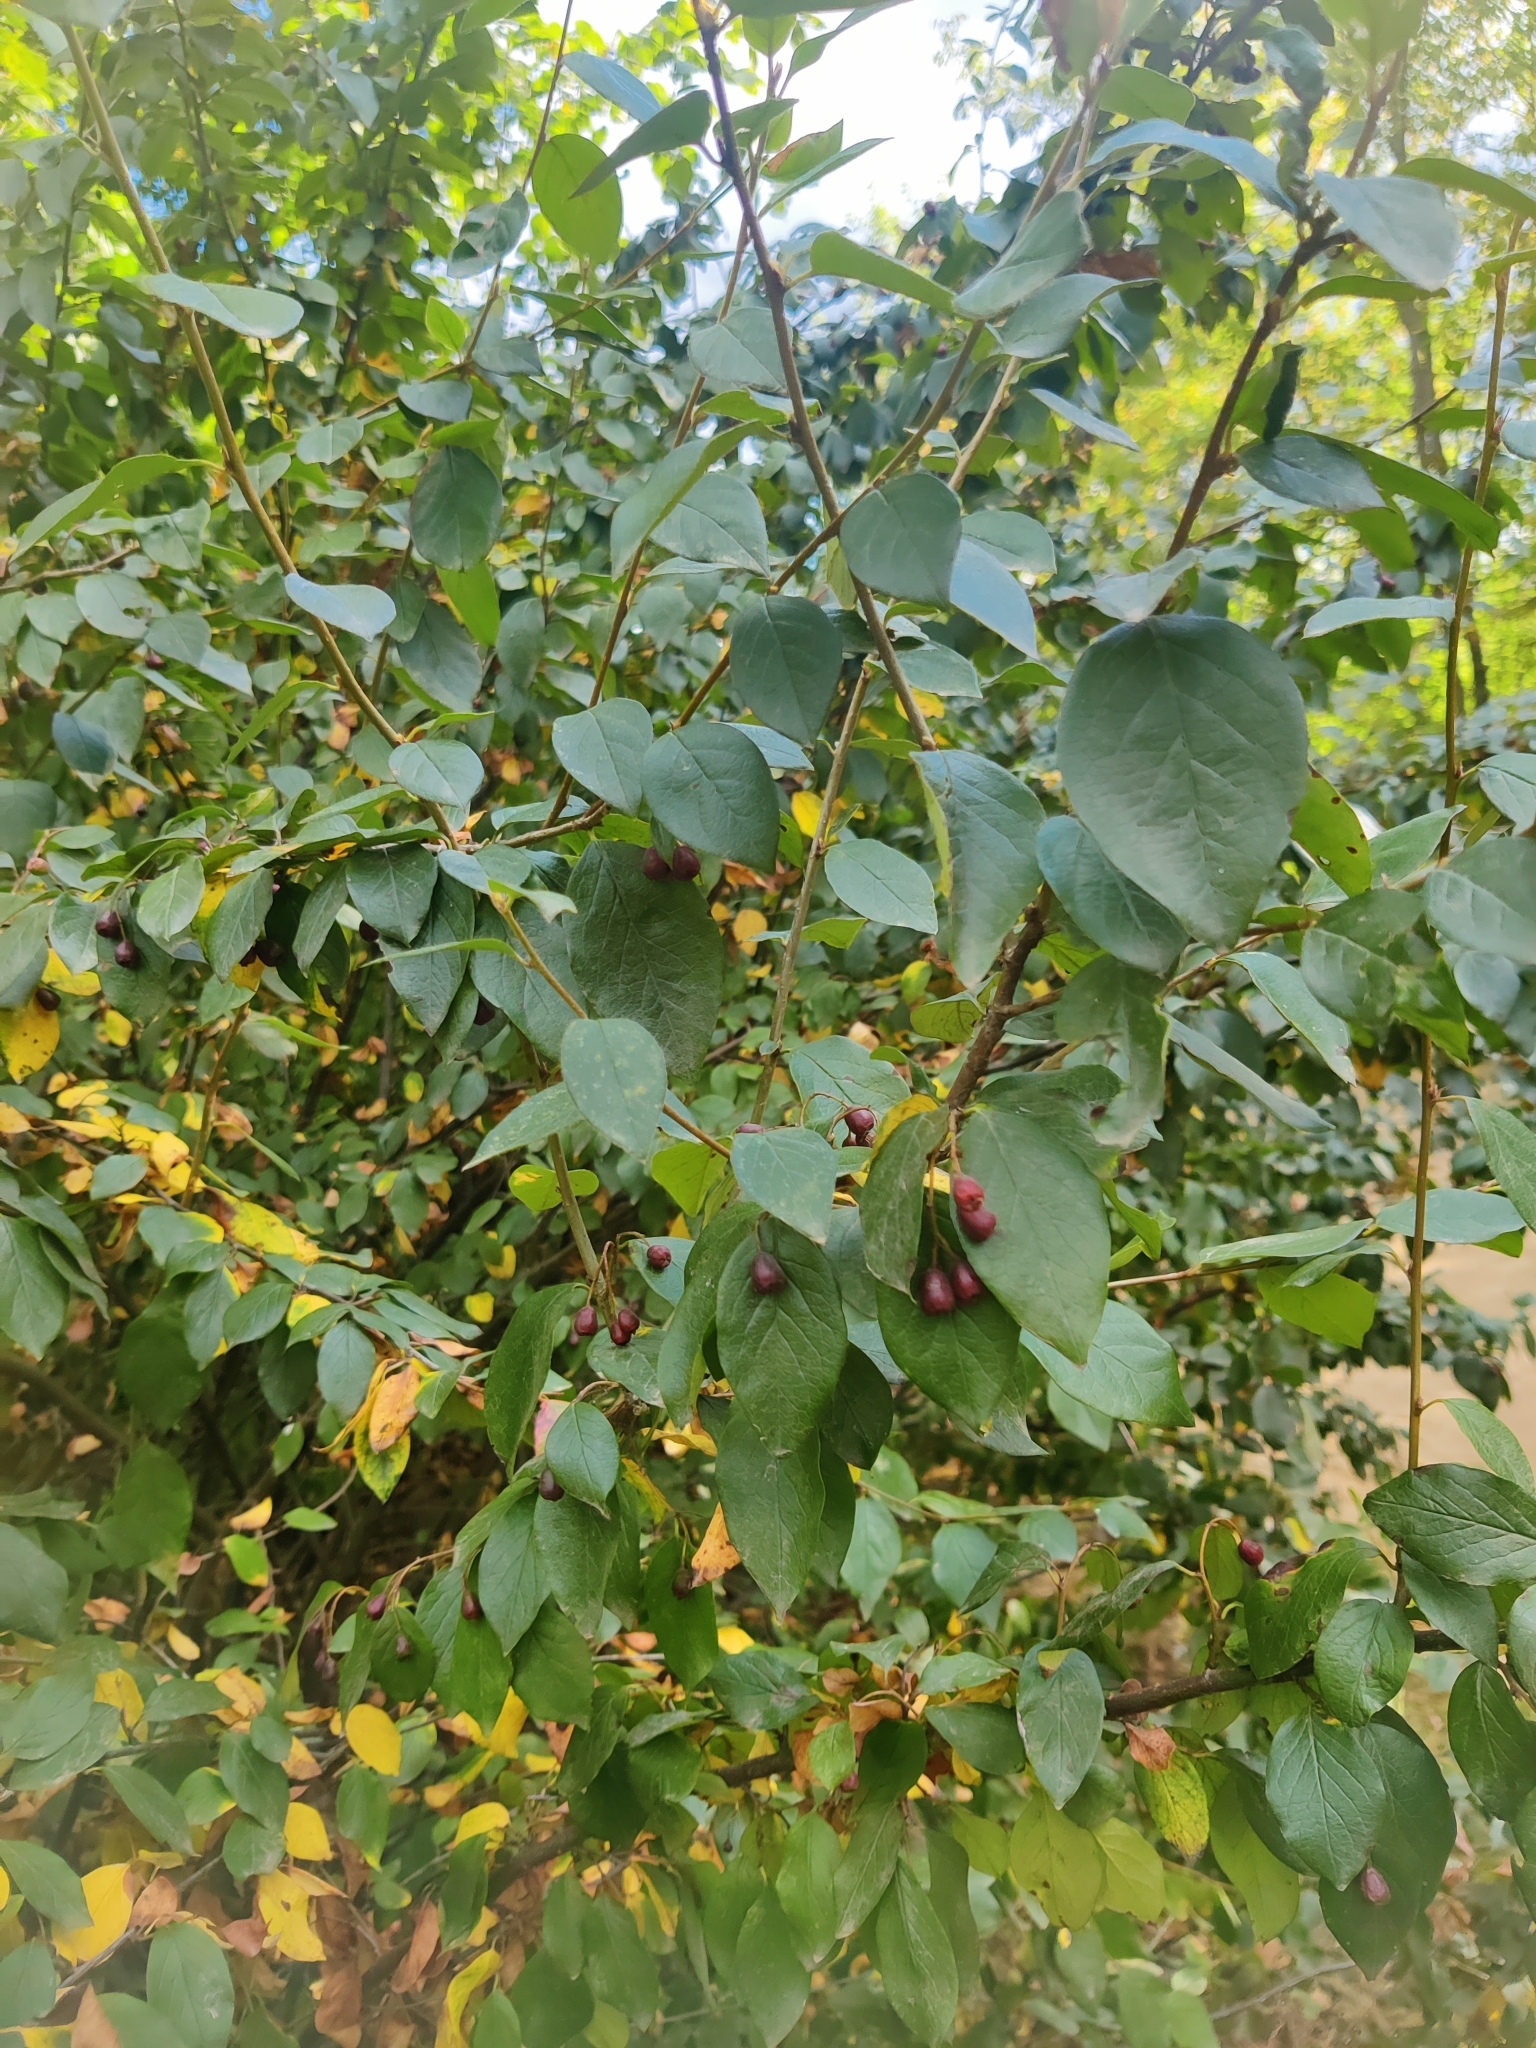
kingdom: Plantae
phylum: Tracheophyta
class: Magnoliopsida
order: Rosales
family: Rosaceae
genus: Cotoneaster
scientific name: Cotoneaster acutifolius
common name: Peking cotoneaster
